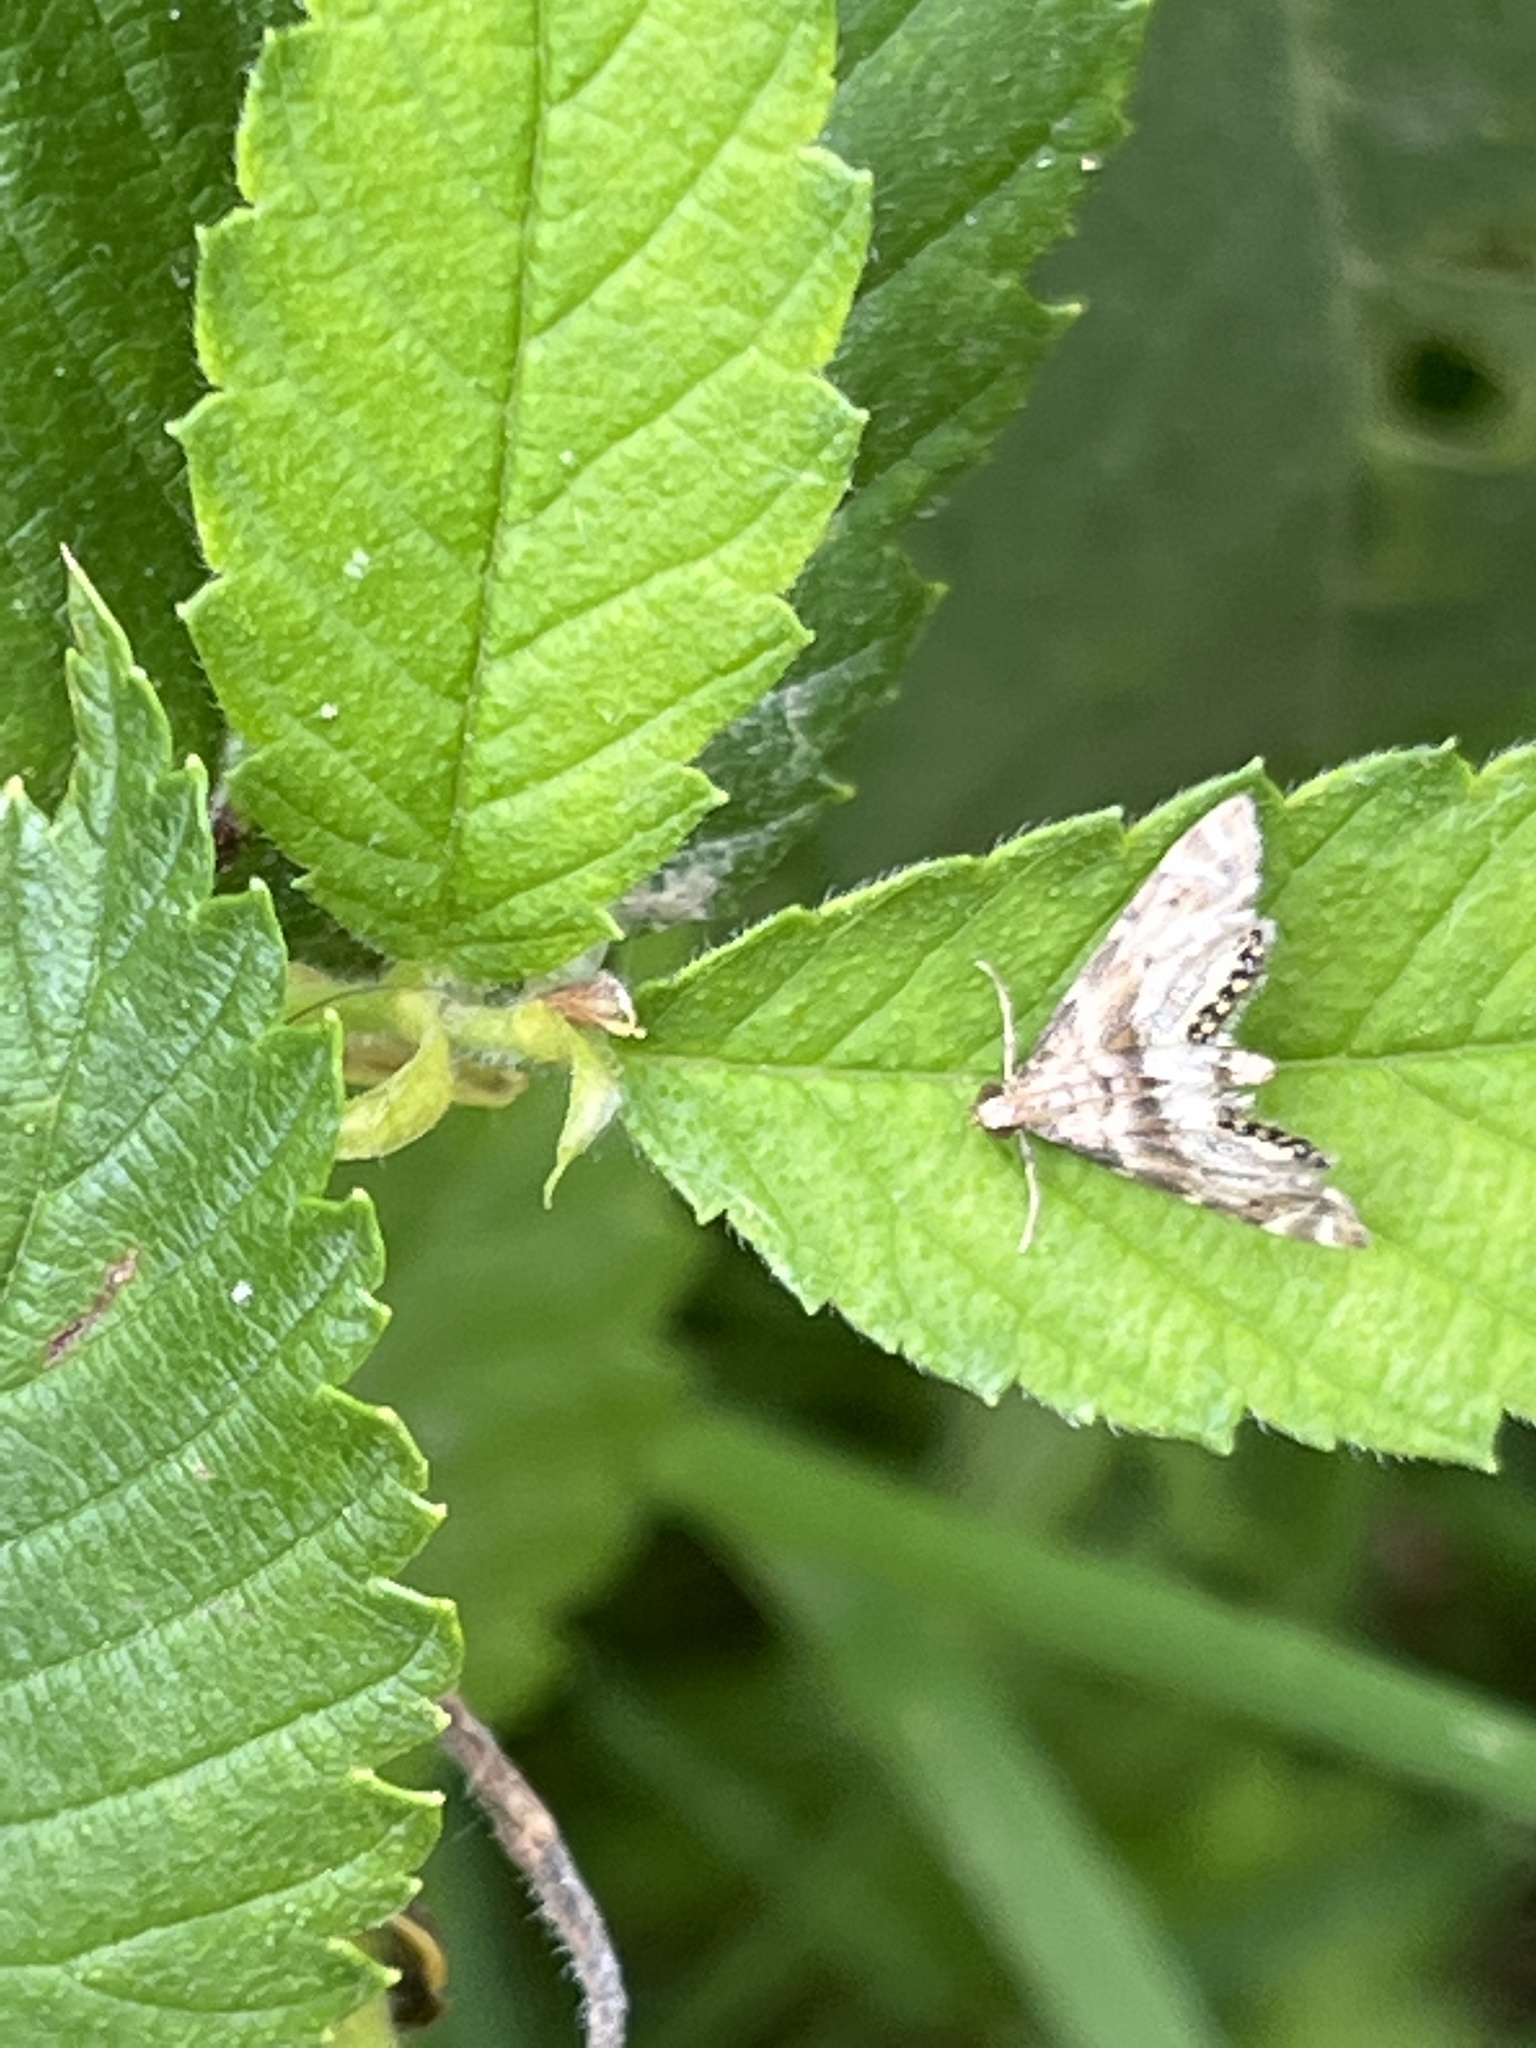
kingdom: Animalia
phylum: Arthropoda
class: Insecta
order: Lepidoptera
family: Crambidae
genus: Petrophila
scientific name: Petrophila fulicalis
